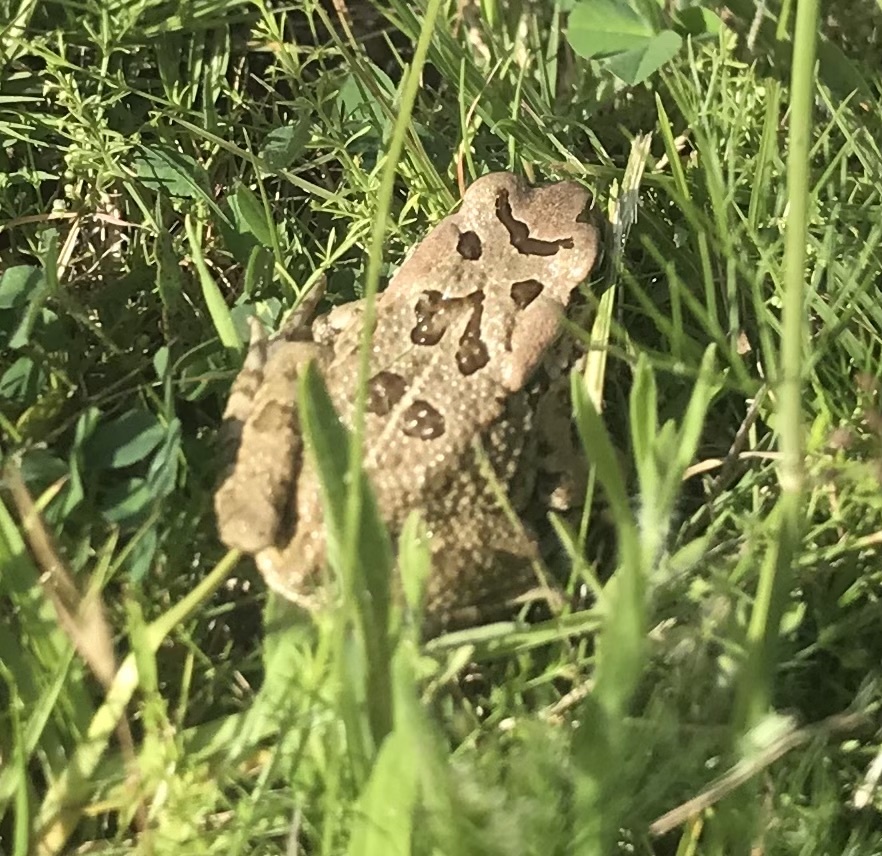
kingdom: Animalia
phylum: Chordata
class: Amphibia
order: Anura
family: Bufonidae
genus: Sclerophrys
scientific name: Sclerophrys capensis
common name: Ranger’s toad
